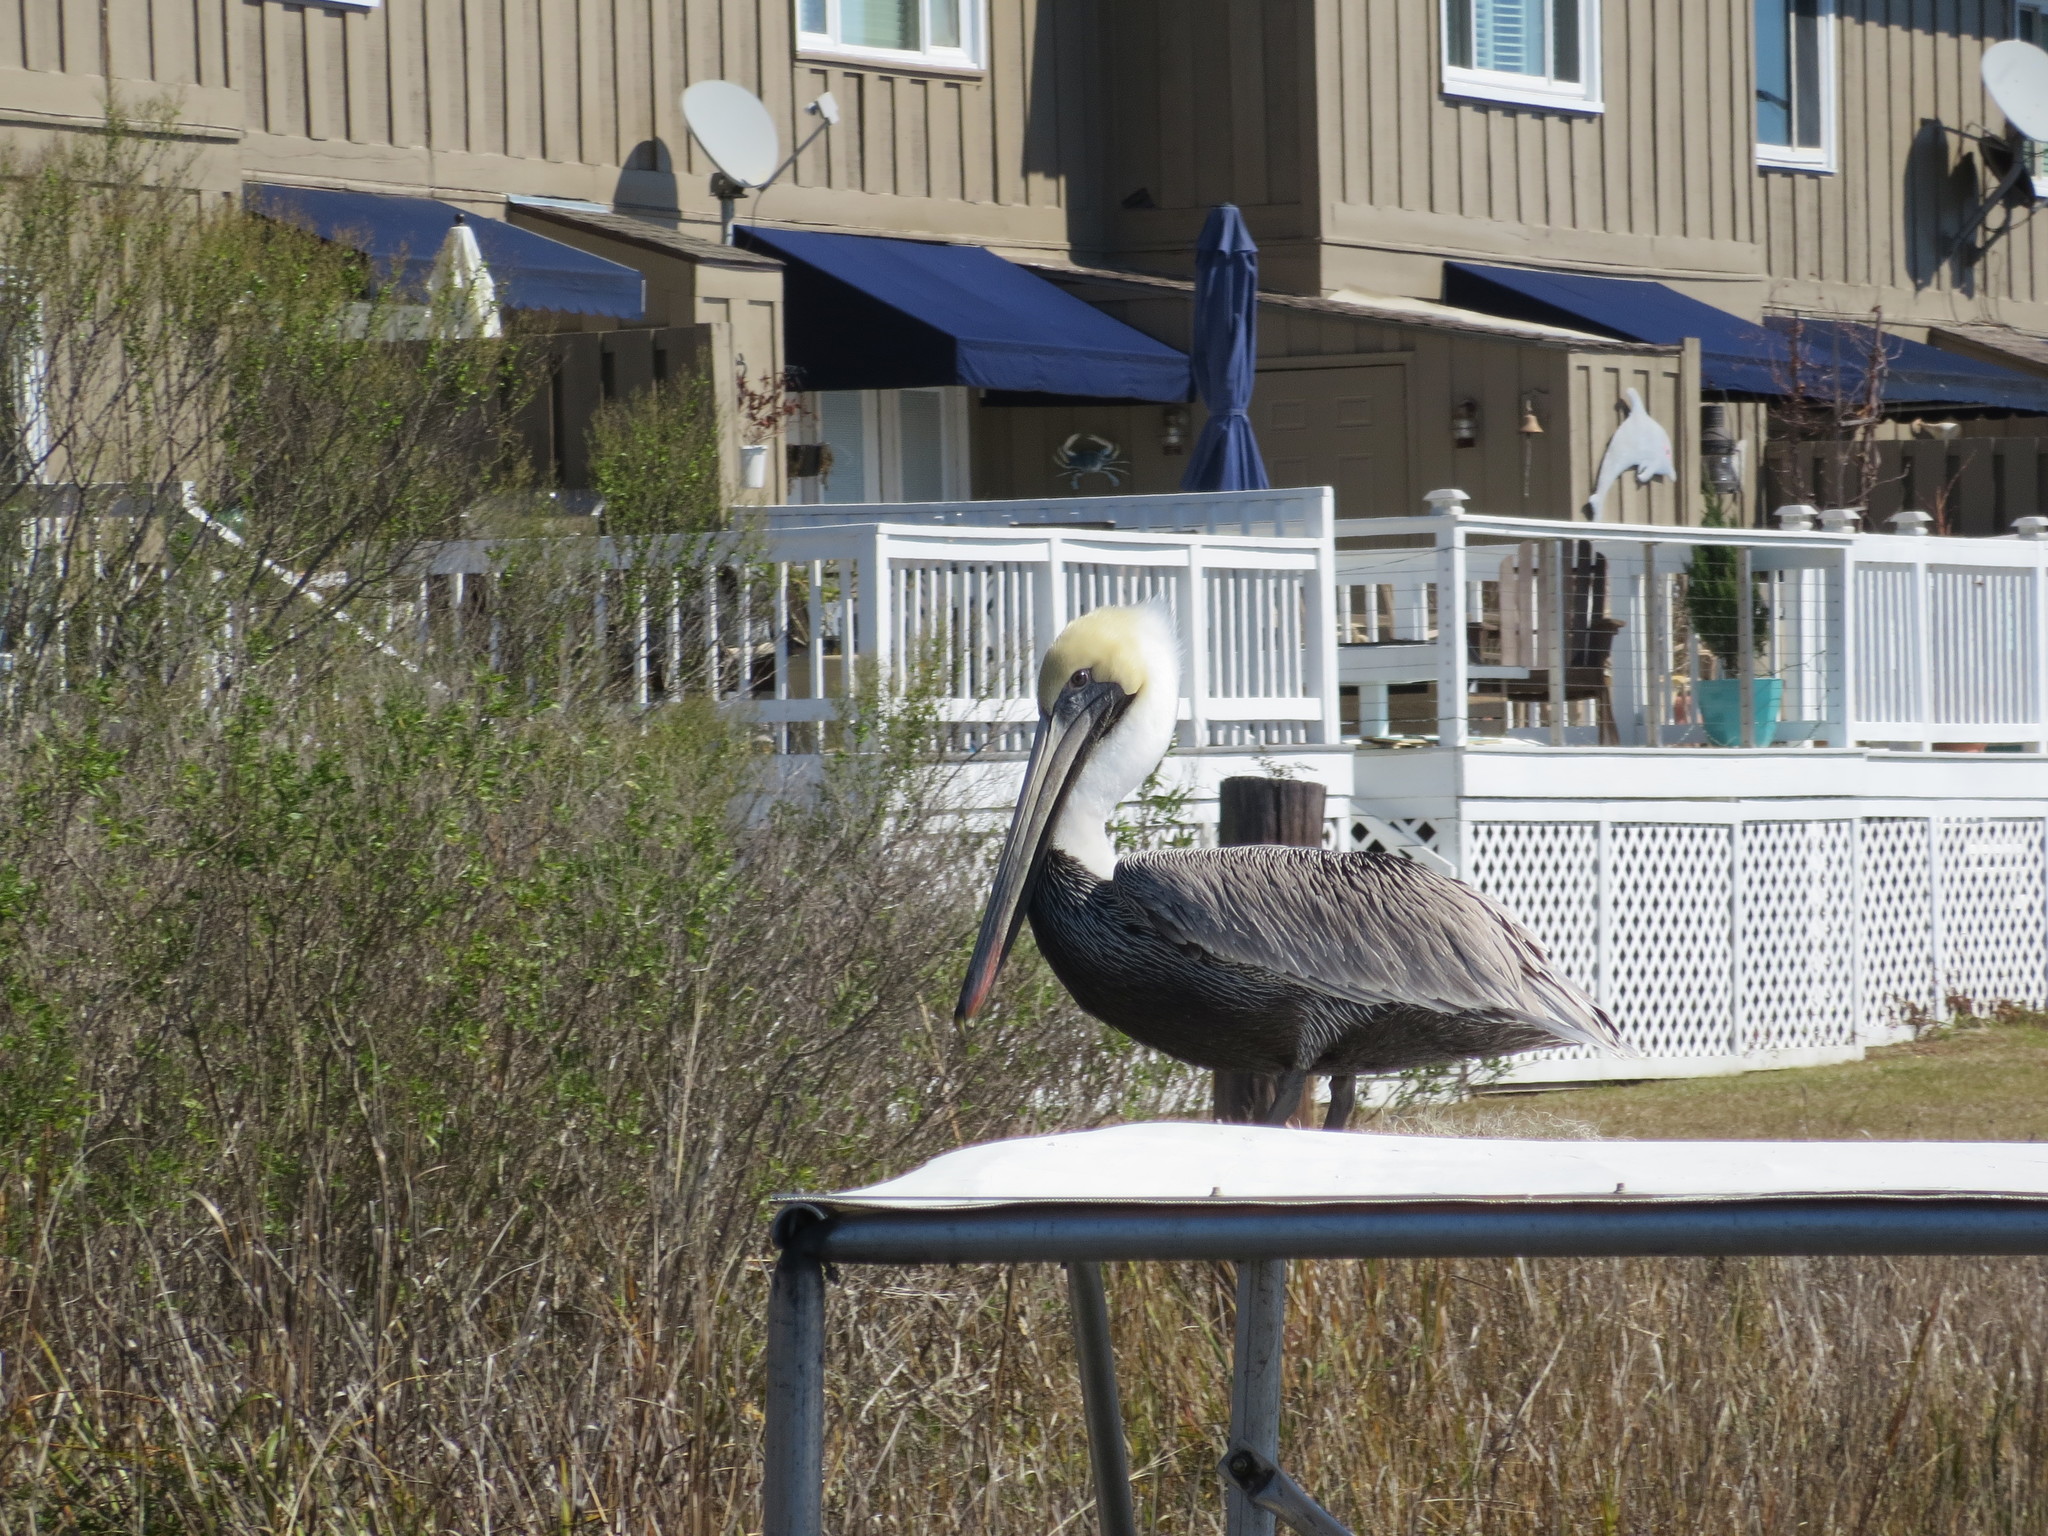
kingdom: Animalia
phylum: Chordata
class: Aves
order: Pelecaniformes
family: Pelecanidae
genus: Pelecanus
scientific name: Pelecanus occidentalis
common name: Brown pelican
